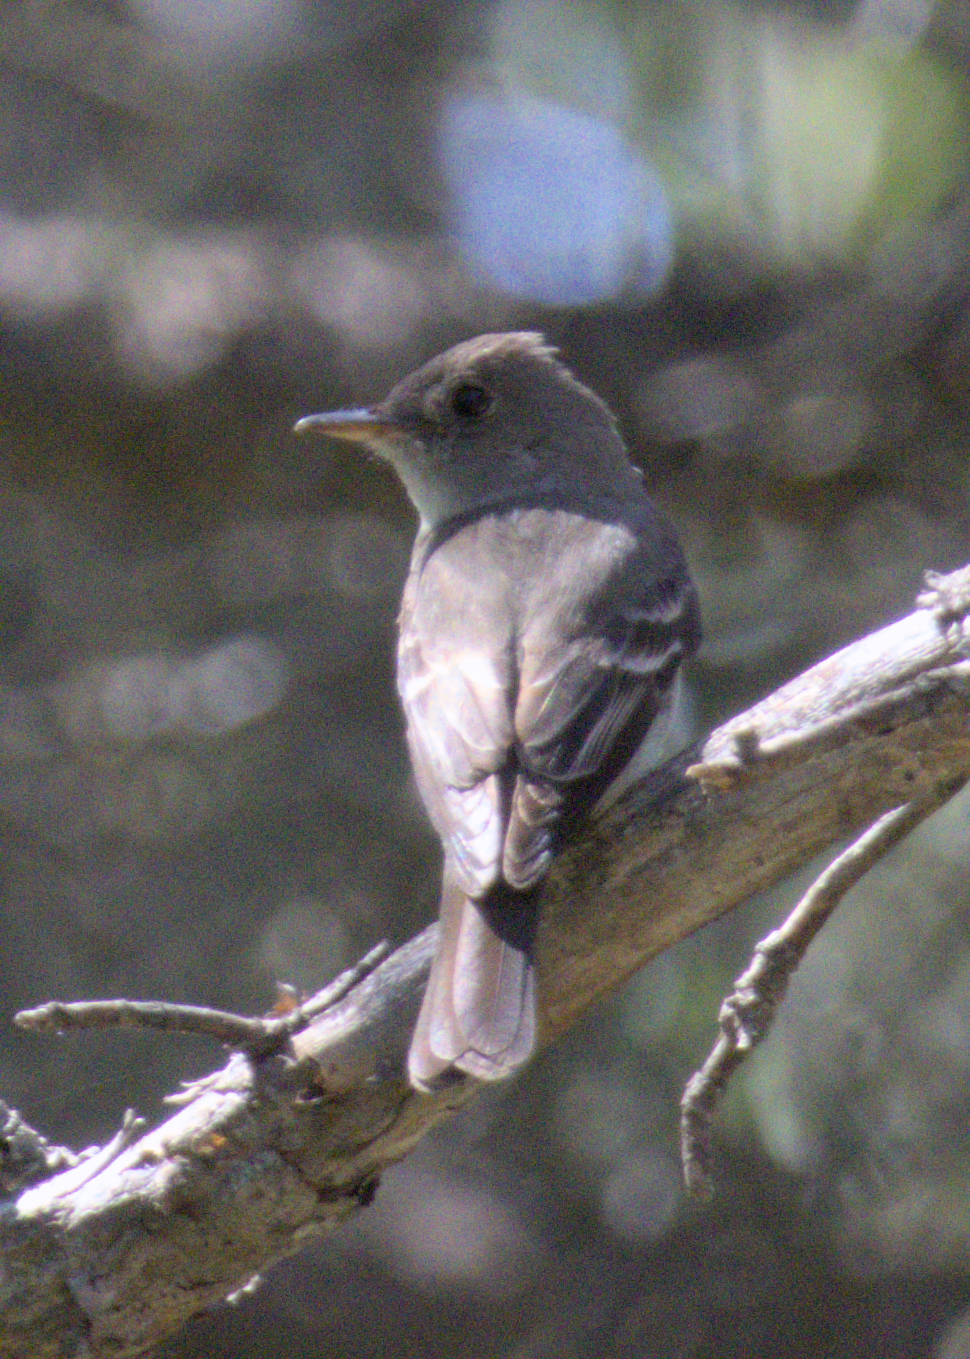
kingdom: Animalia
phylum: Chordata
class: Aves
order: Passeriformes
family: Tyrannidae
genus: Contopus
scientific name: Contopus virens
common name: Eastern wood-pewee
